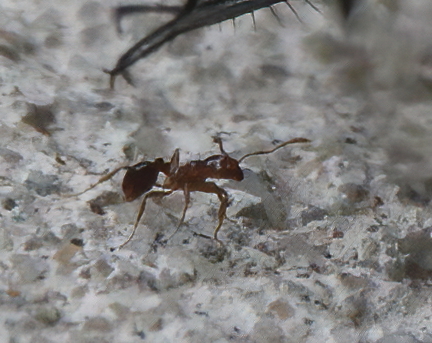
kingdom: Animalia
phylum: Arthropoda
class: Insecta
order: Hymenoptera
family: Formicidae
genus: Solenopsis
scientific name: Solenopsis invicta
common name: Red imported fire ant
